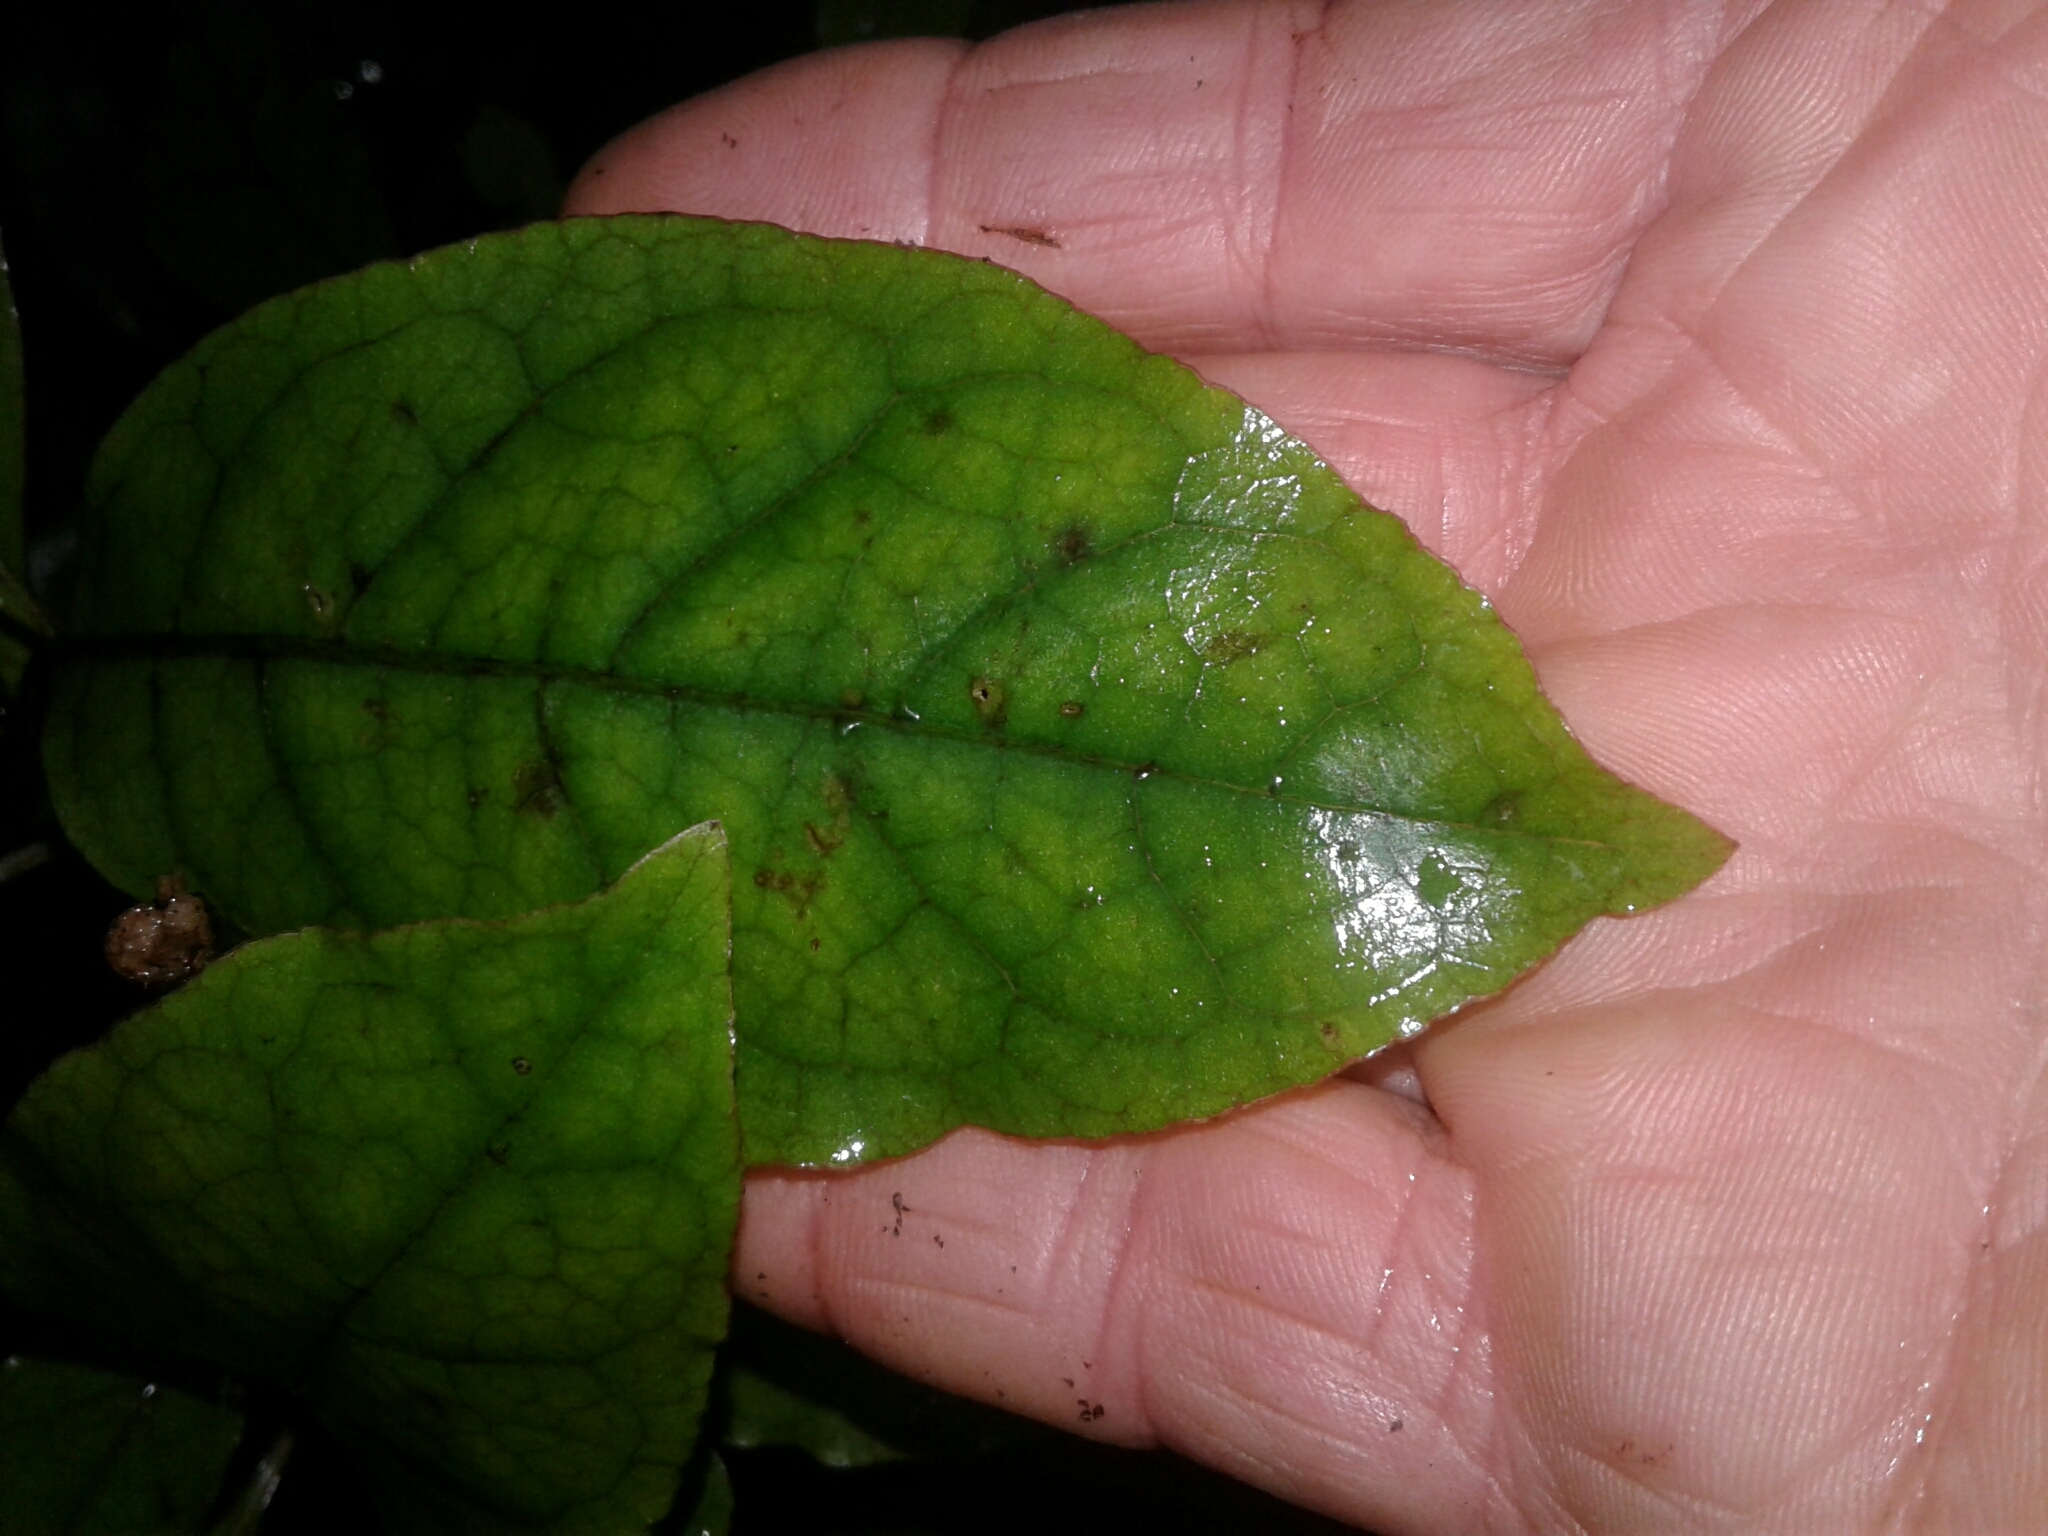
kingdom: Plantae
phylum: Tracheophyta
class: Magnoliopsida
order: Gentianales
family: Rubiaceae
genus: Coprosma
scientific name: Coprosma autumnalis
